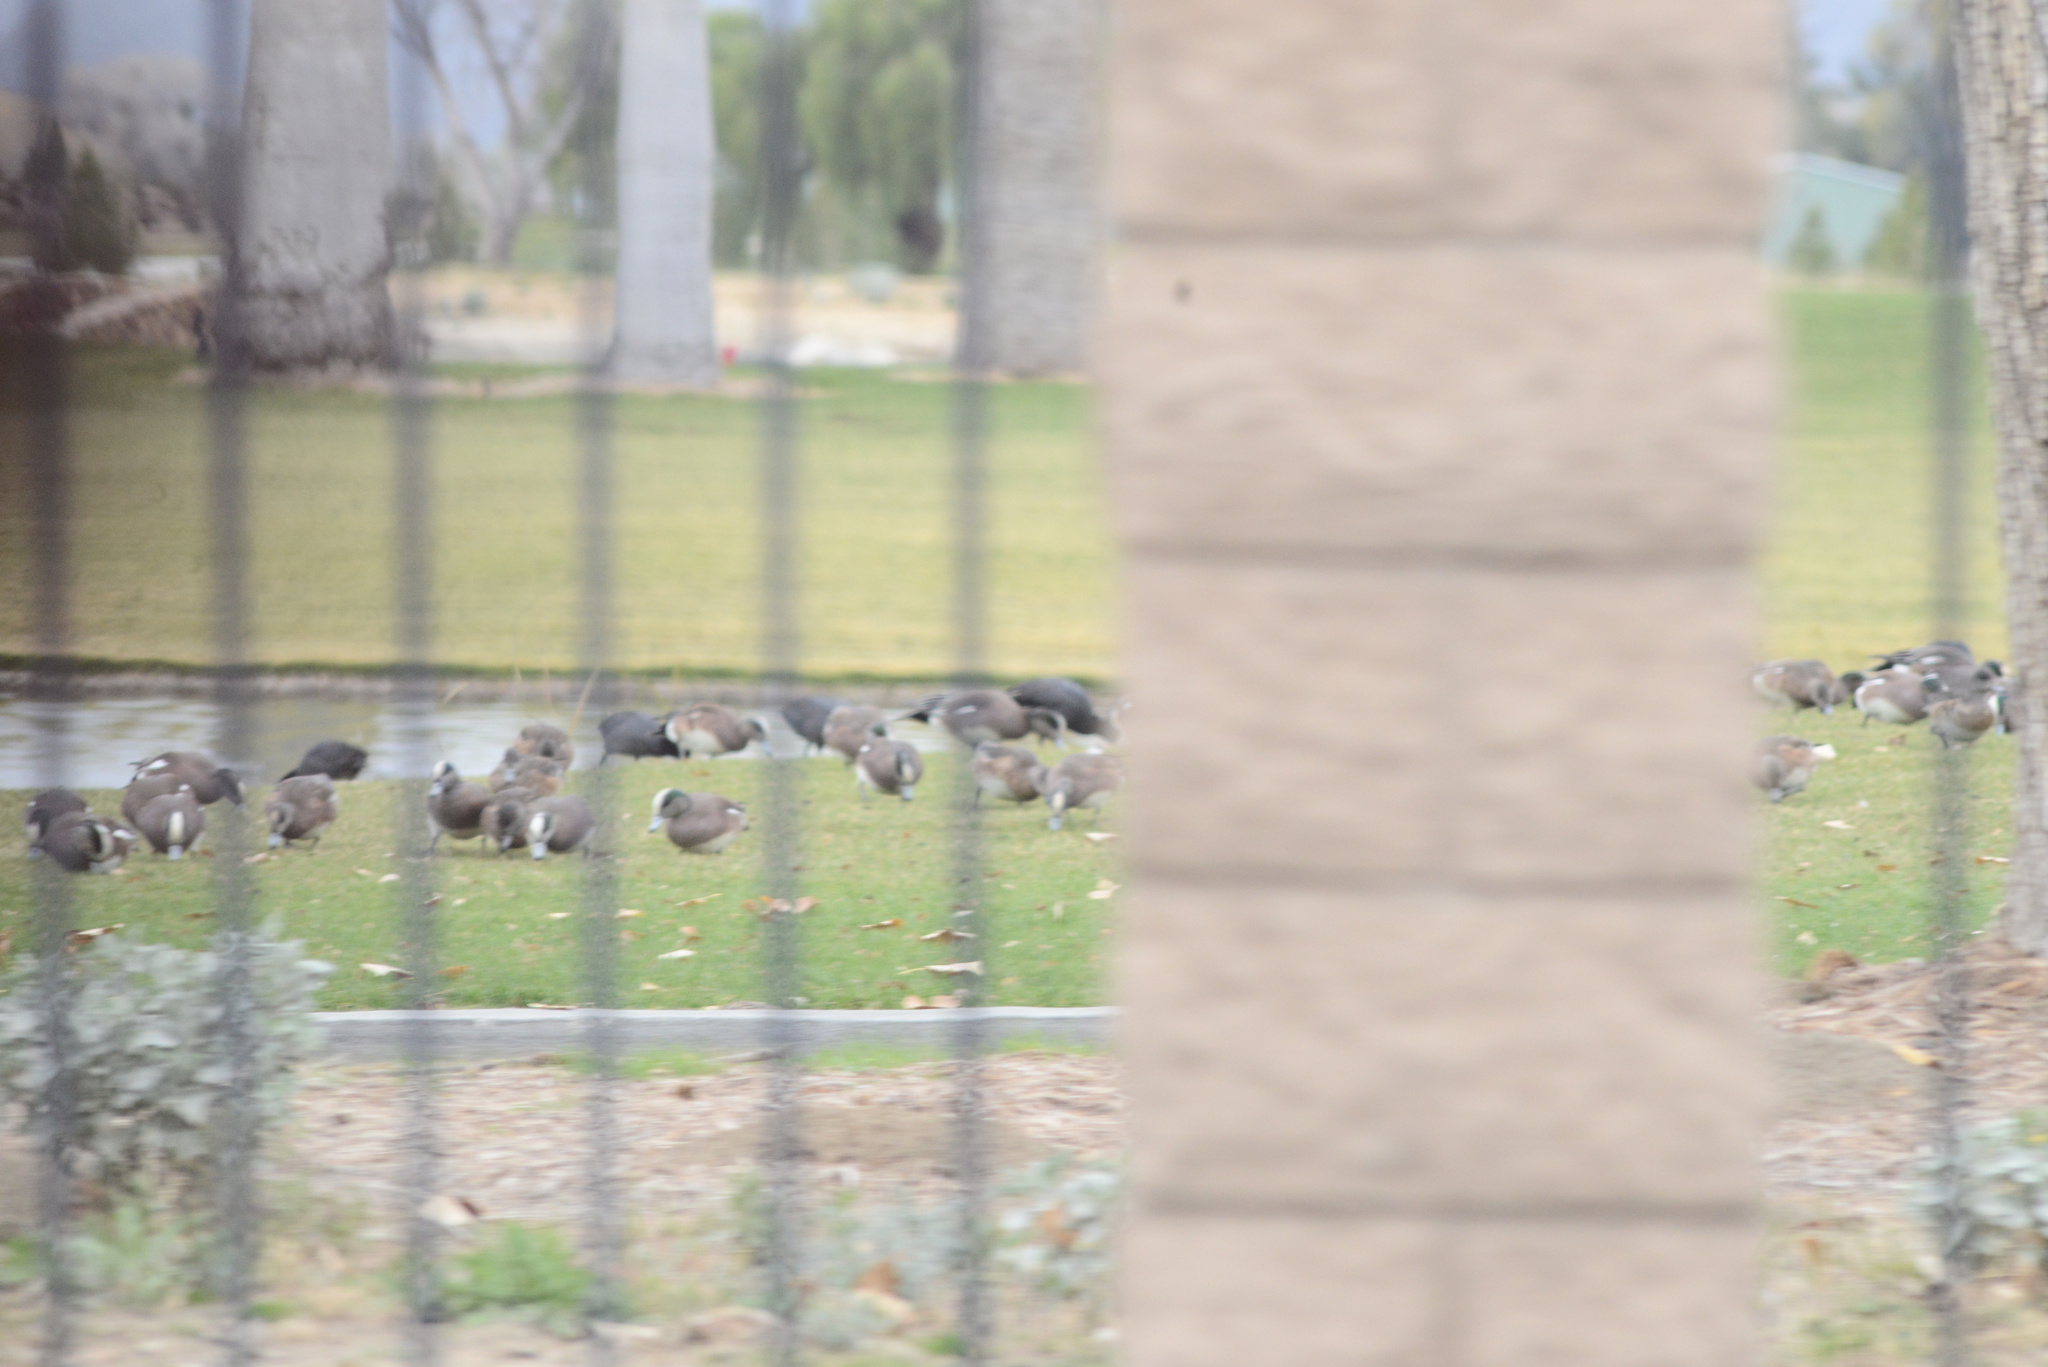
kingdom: Animalia
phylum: Chordata
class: Aves
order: Anseriformes
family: Anatidae
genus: Mareca
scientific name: Mareca americana
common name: American wigeon
